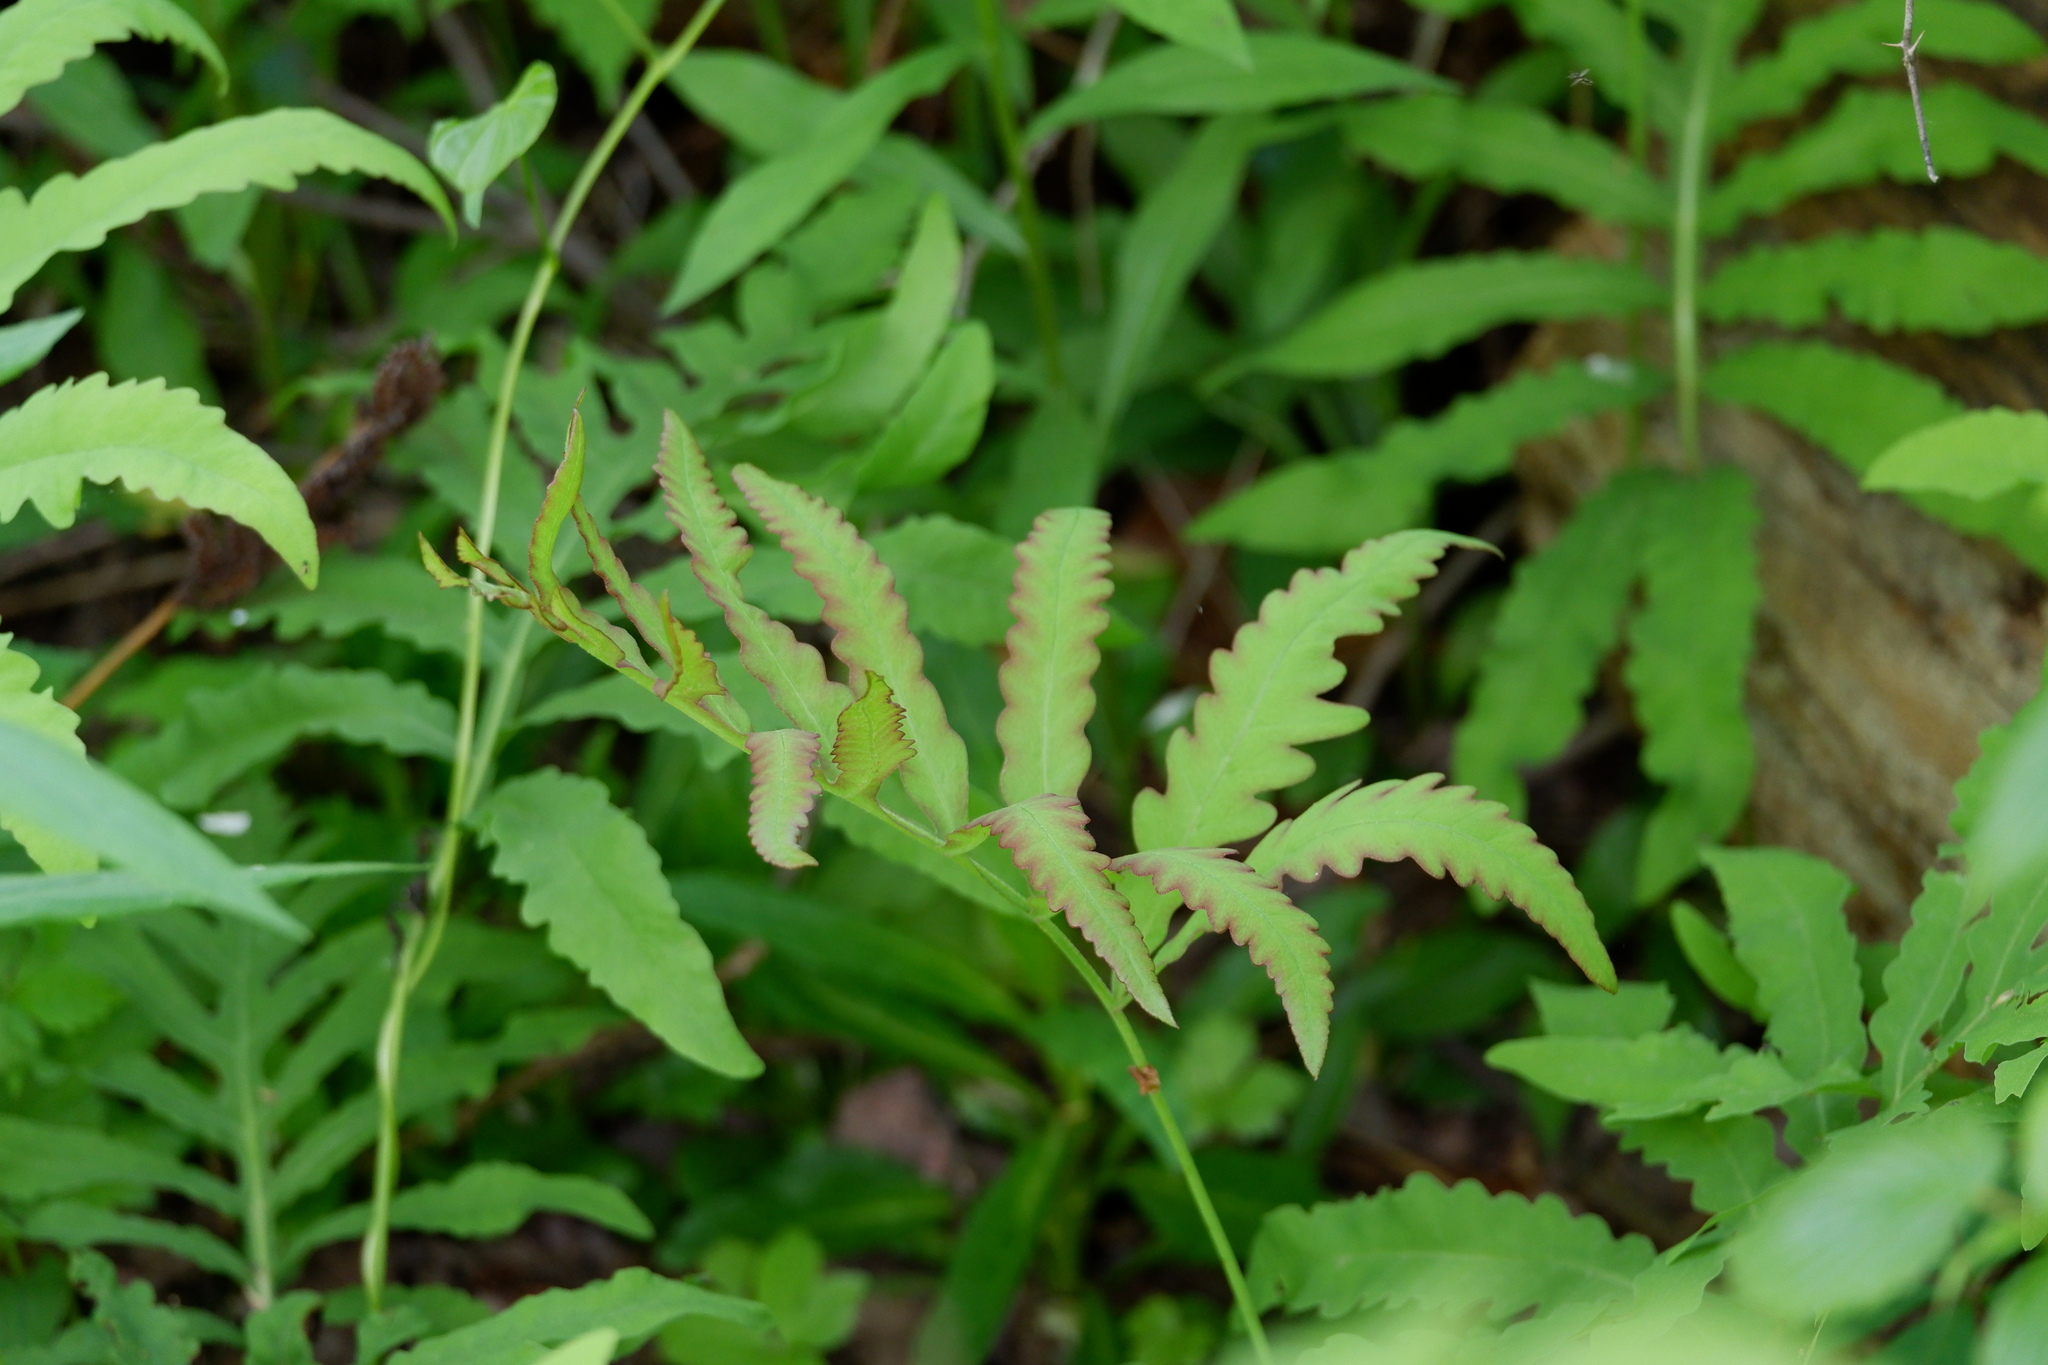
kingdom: Plantae
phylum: Tracheophyta
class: Polypodiopsida
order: Polypodiales
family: Onocleaceae
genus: Onoclea
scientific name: Onoclea sensibilis
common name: Sensitive fern
